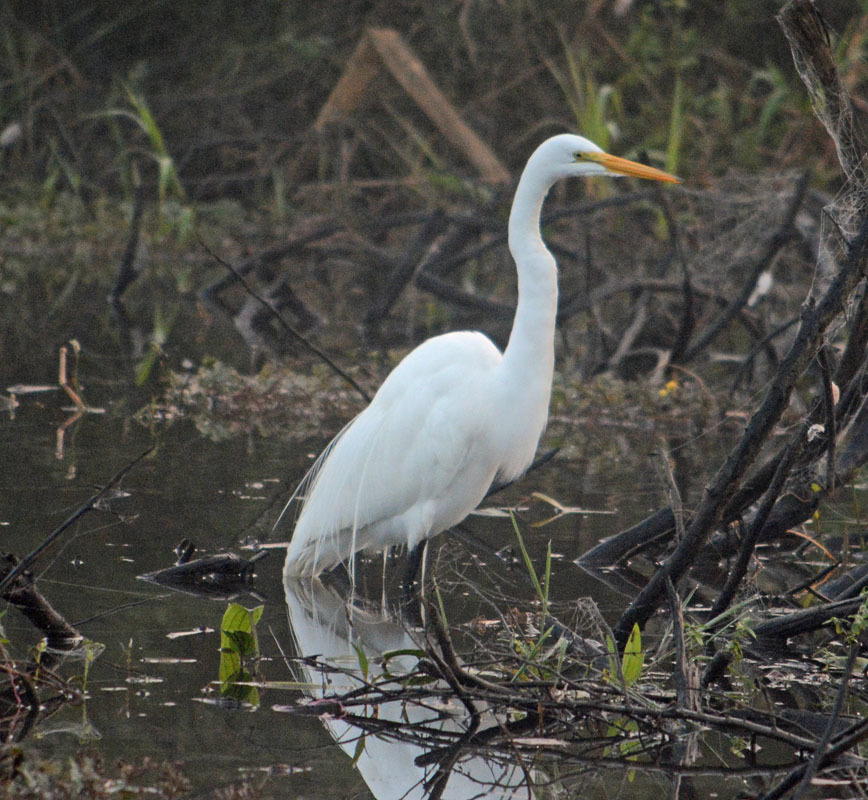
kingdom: Animalia
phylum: Chordata
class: Aves
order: Pelecaniformes
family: Ardeidae
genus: Ardea
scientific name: Ardea alba
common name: Great egret
